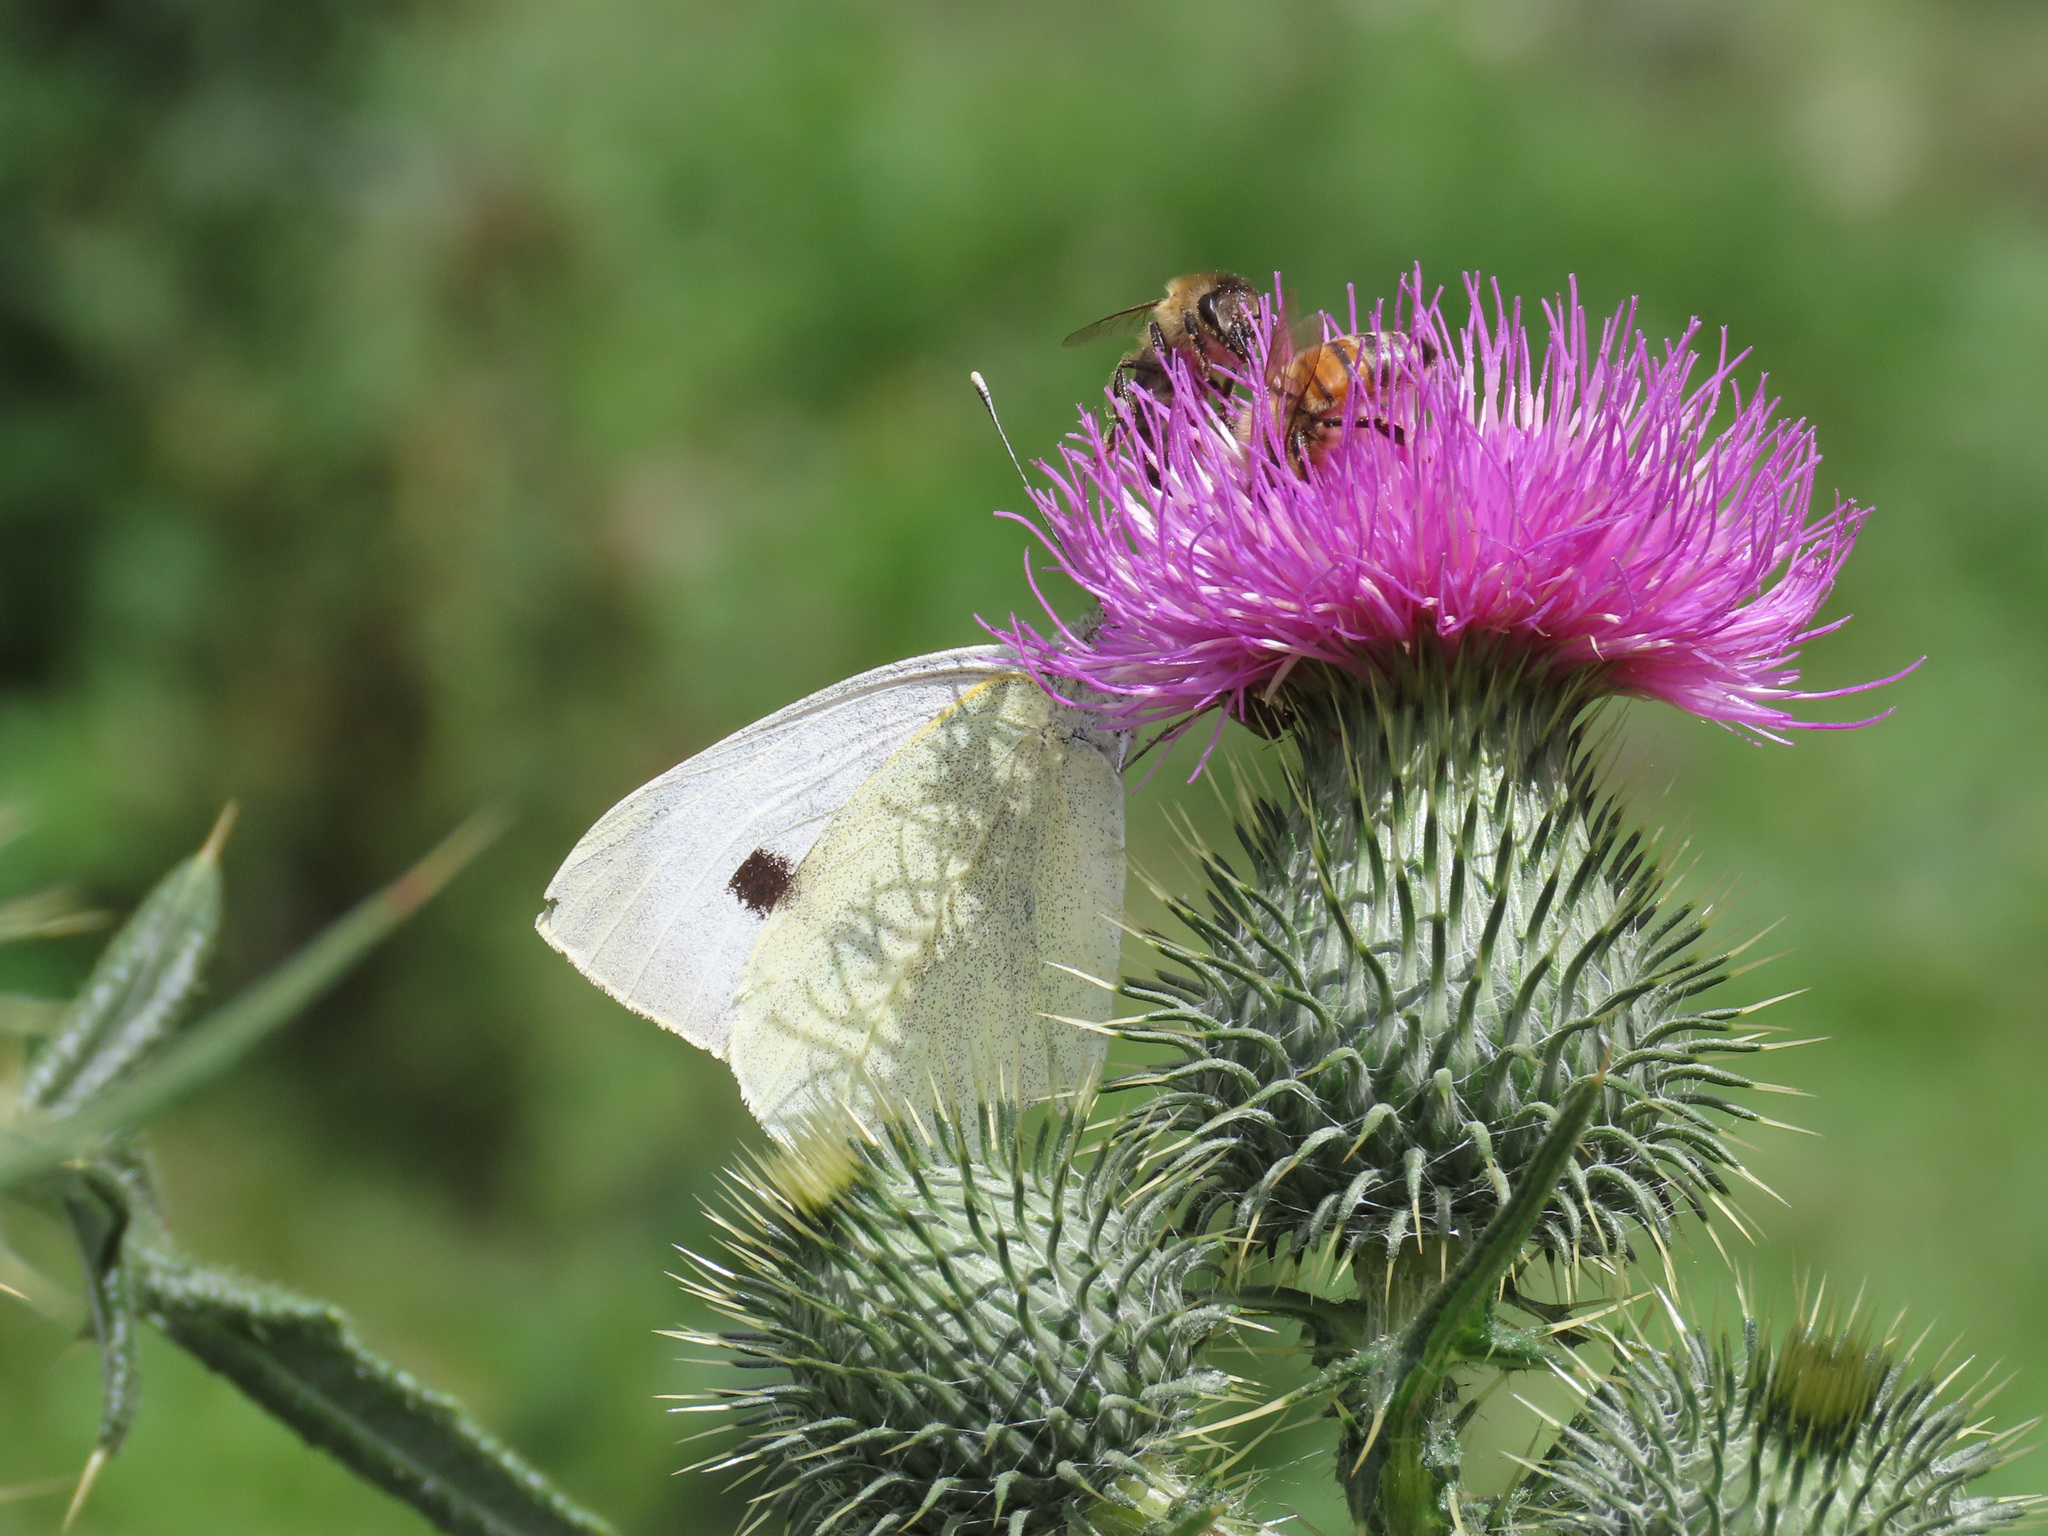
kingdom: Animalia
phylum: Arthropoda
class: Insecta
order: Lepidoptera
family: Pieridae
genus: Pieris
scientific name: Pieris brassicae
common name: Large white
